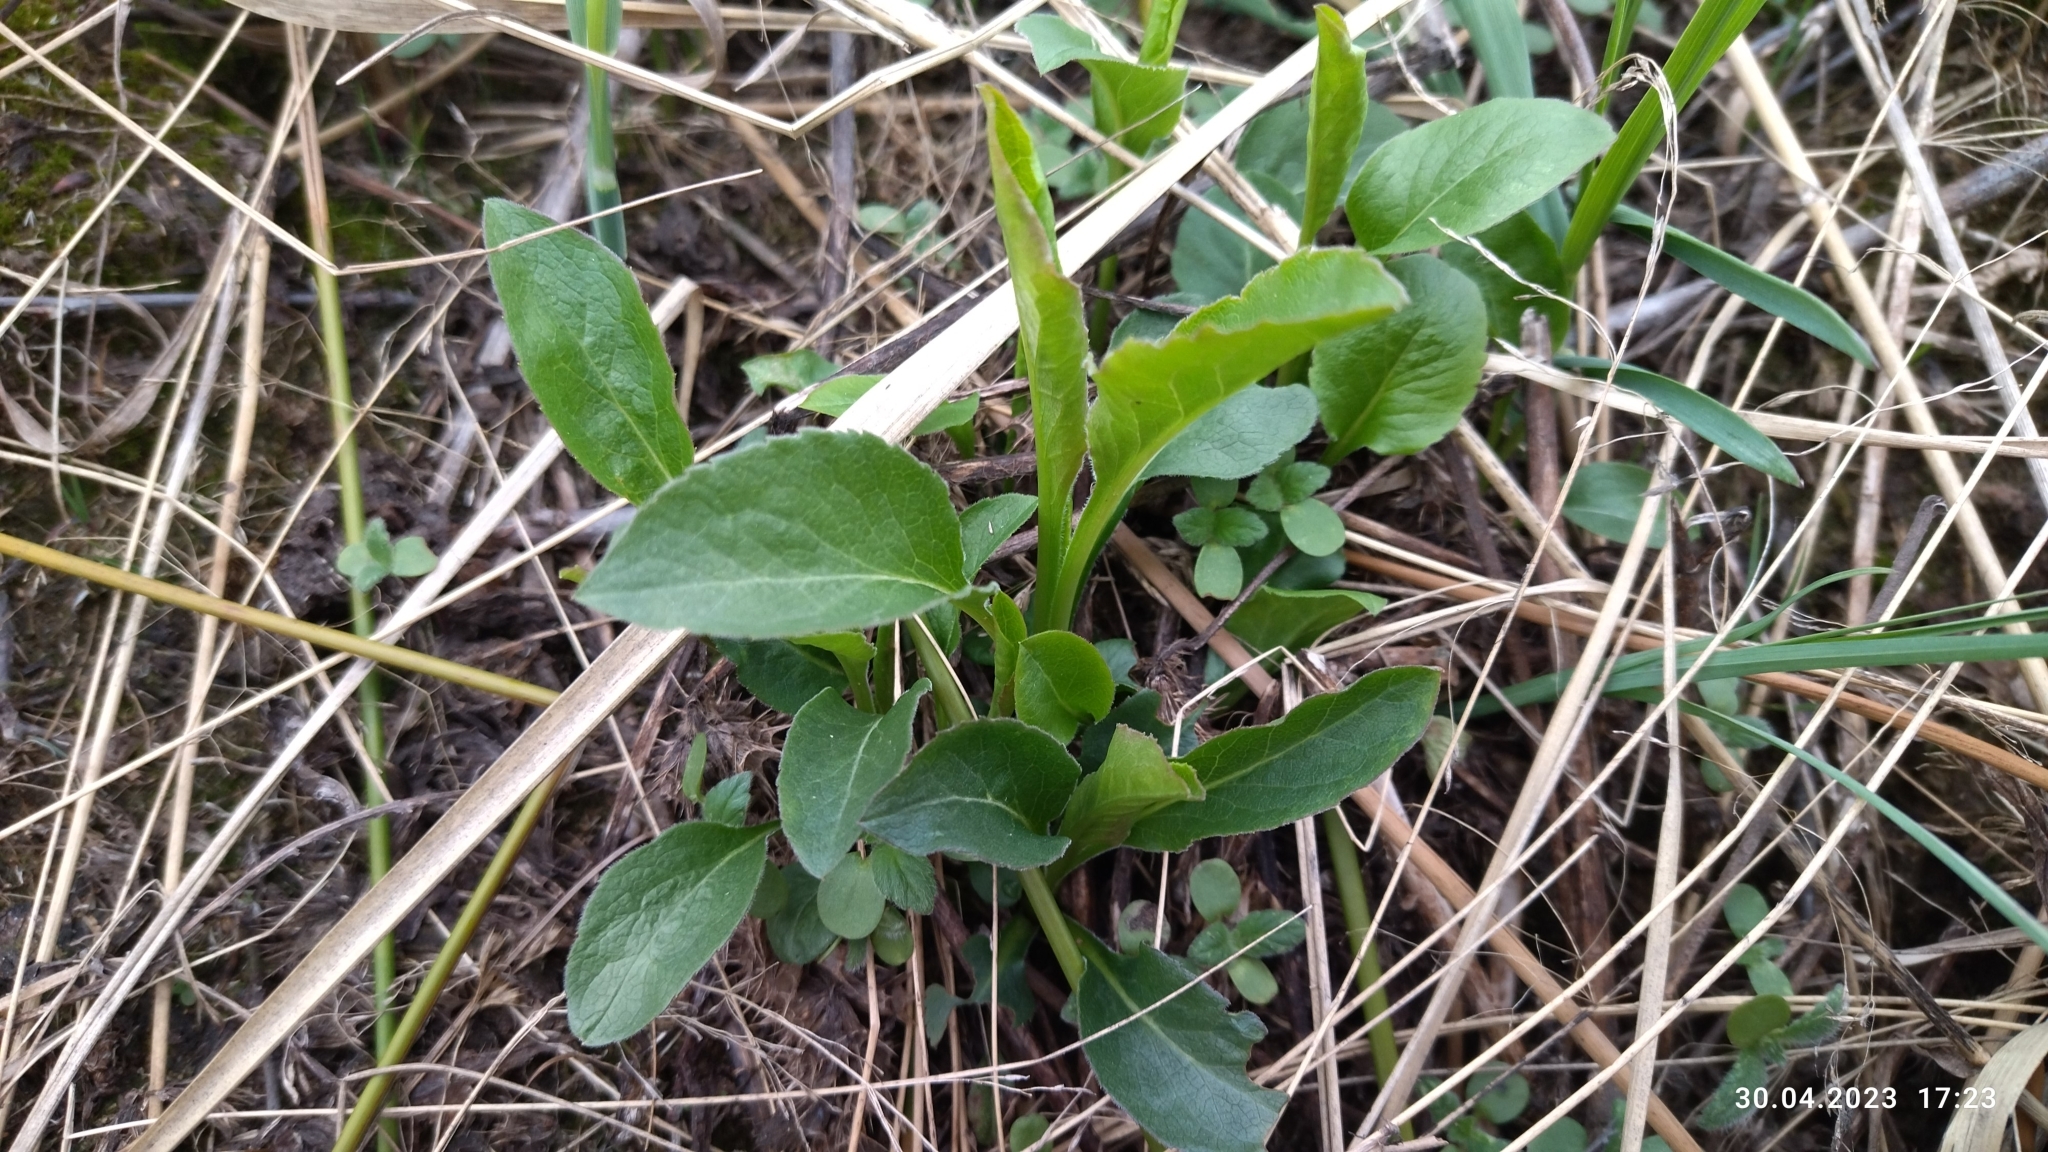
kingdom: Plantae
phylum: Tracheophyta
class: Magnoliopsida
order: Asterales
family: Asteraceae
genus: Solidago
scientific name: Solidago virgaurea
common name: Goldenrod
